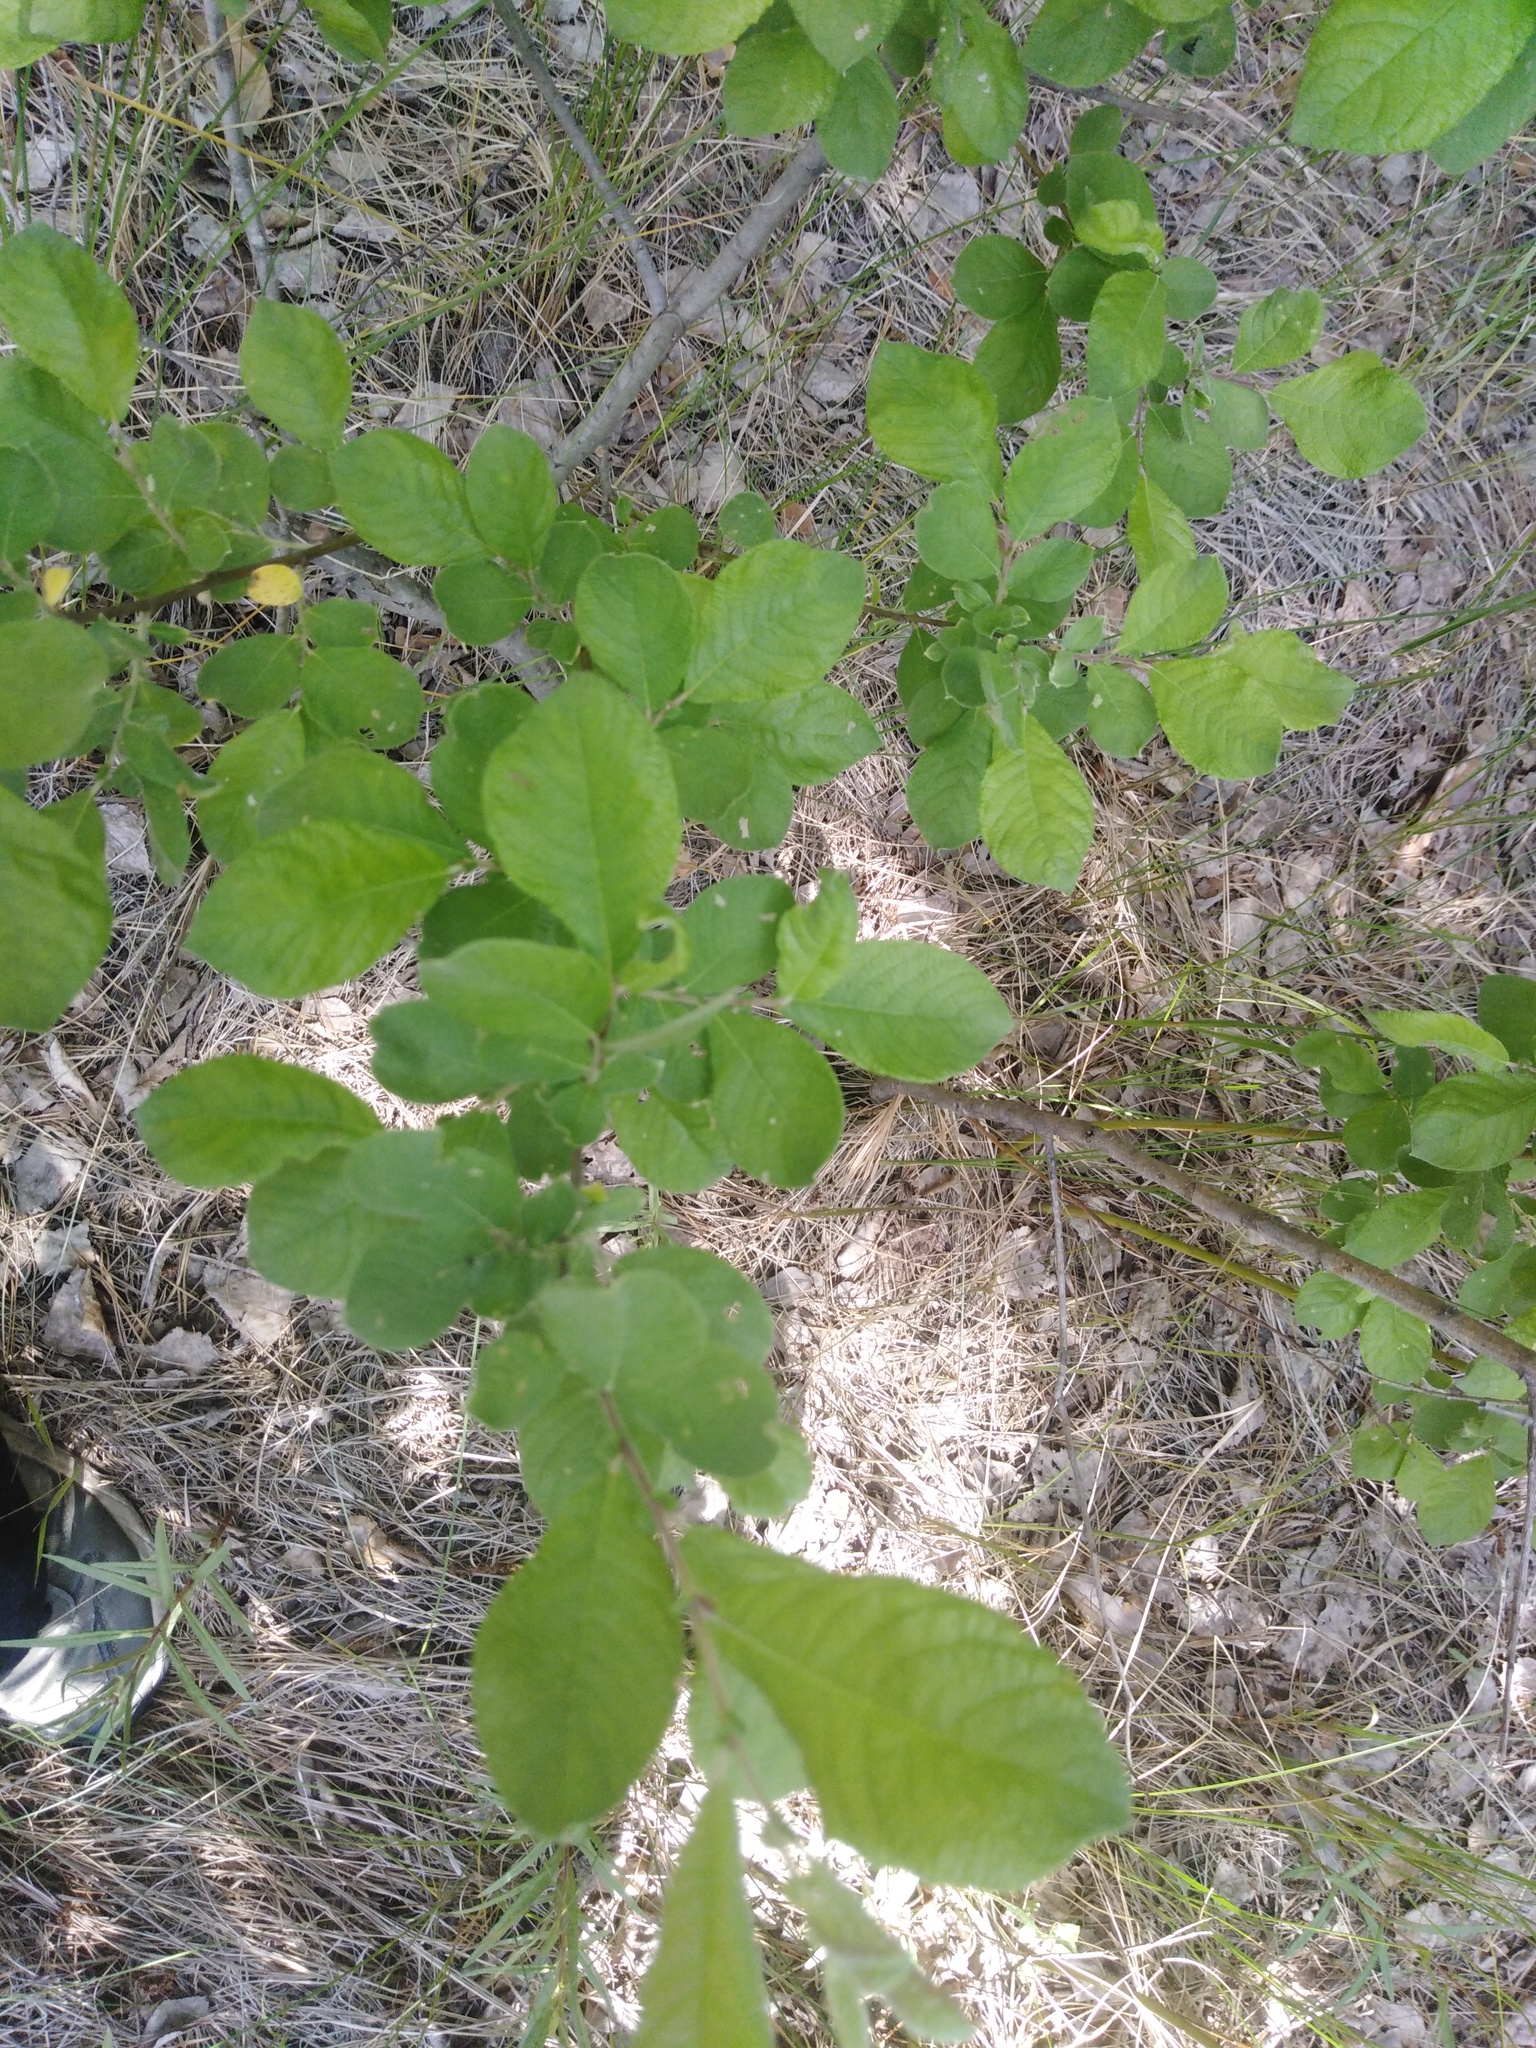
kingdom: Plantae
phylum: Tracheophyta
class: Magnoliopsida
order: Malpighiales
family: Salicaceae
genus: Salix
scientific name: Salix aurita
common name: Eared willow
